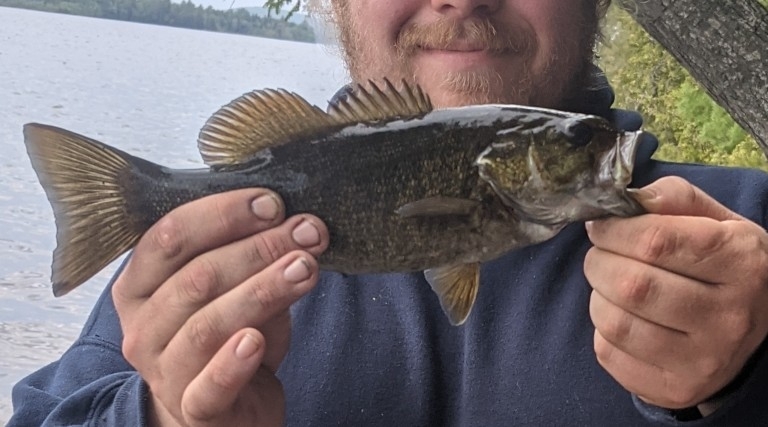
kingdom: Animalia
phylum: Chordata
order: Perciformes
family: Centrarchidae
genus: Micropterus
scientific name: Micropterus dolomieu
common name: Smallmouth bass
